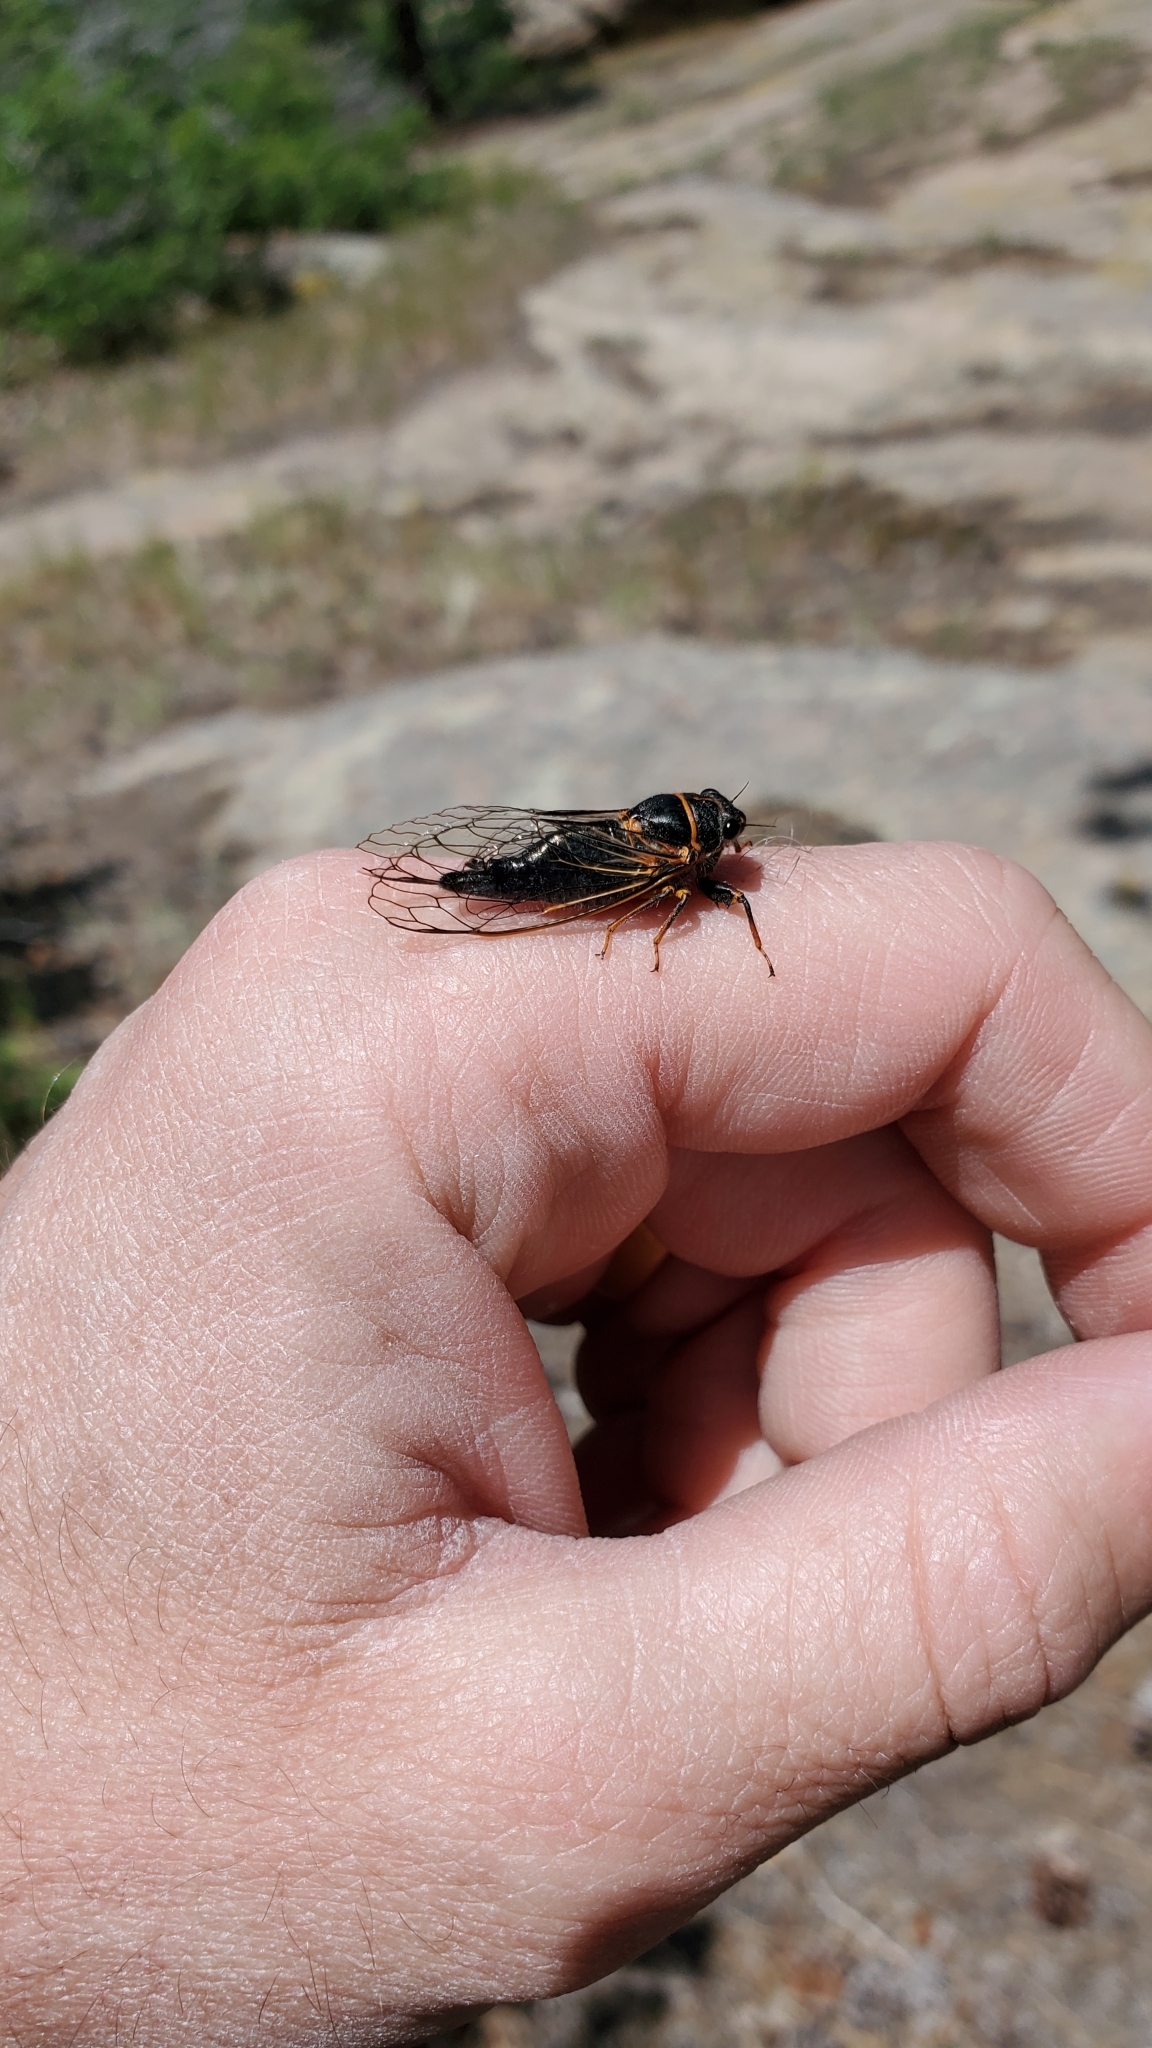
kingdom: Animalia
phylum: Arthropoda
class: Insecta
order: Hemiptera
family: Cicadidae
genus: Platypedia
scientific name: Platypedia putnami
